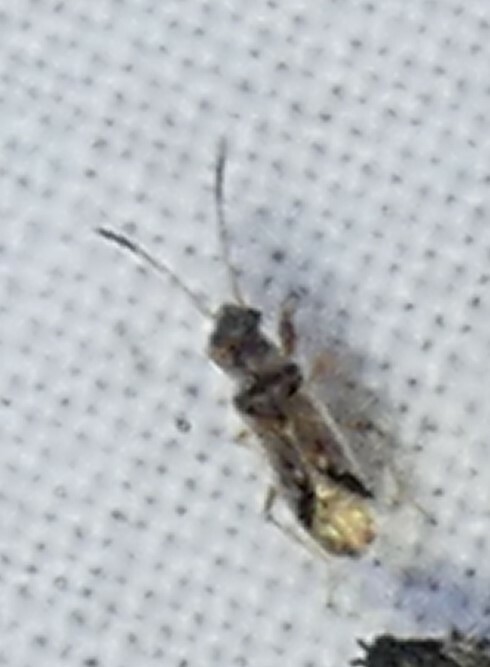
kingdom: Animalia
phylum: Arthropoda
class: Insecta
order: Hemiptera
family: Rhyparochromidae
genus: Pseudopachybrachius
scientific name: Pseudopachybrachius vinctus
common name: Dirt-colored seed bug
